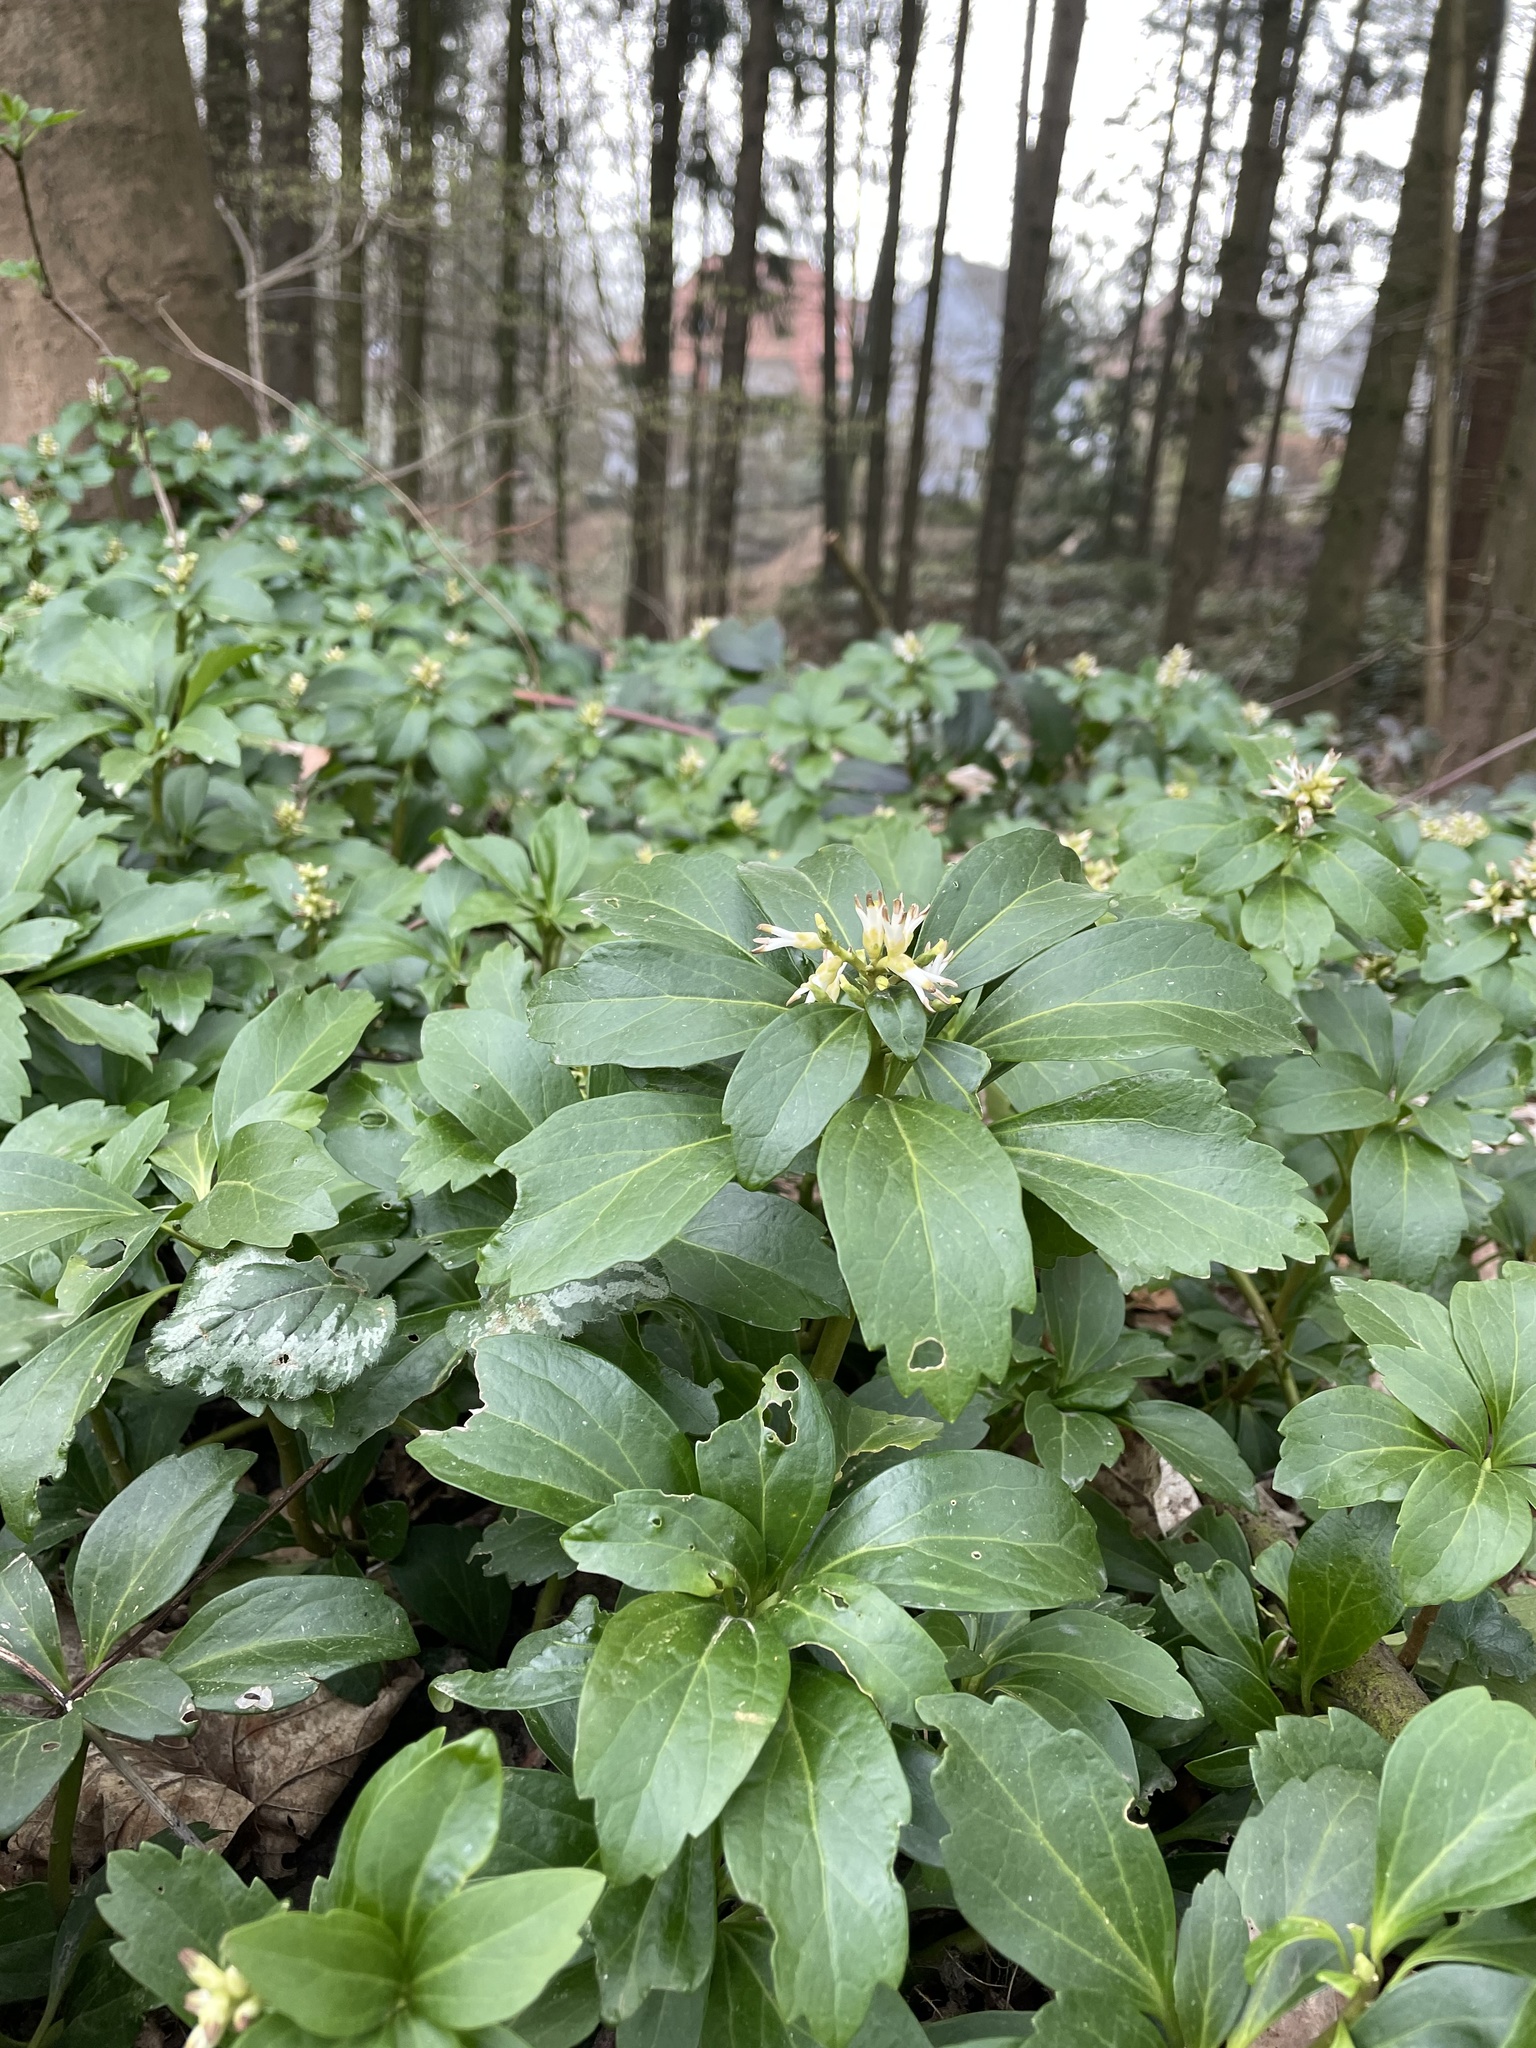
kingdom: Plantae
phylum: Tracheophyta
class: Magnoliopsida
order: Buxales
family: Buxaceae
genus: Pachysandra
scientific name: Pachysandra terminalis
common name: Japanese pachysandra
